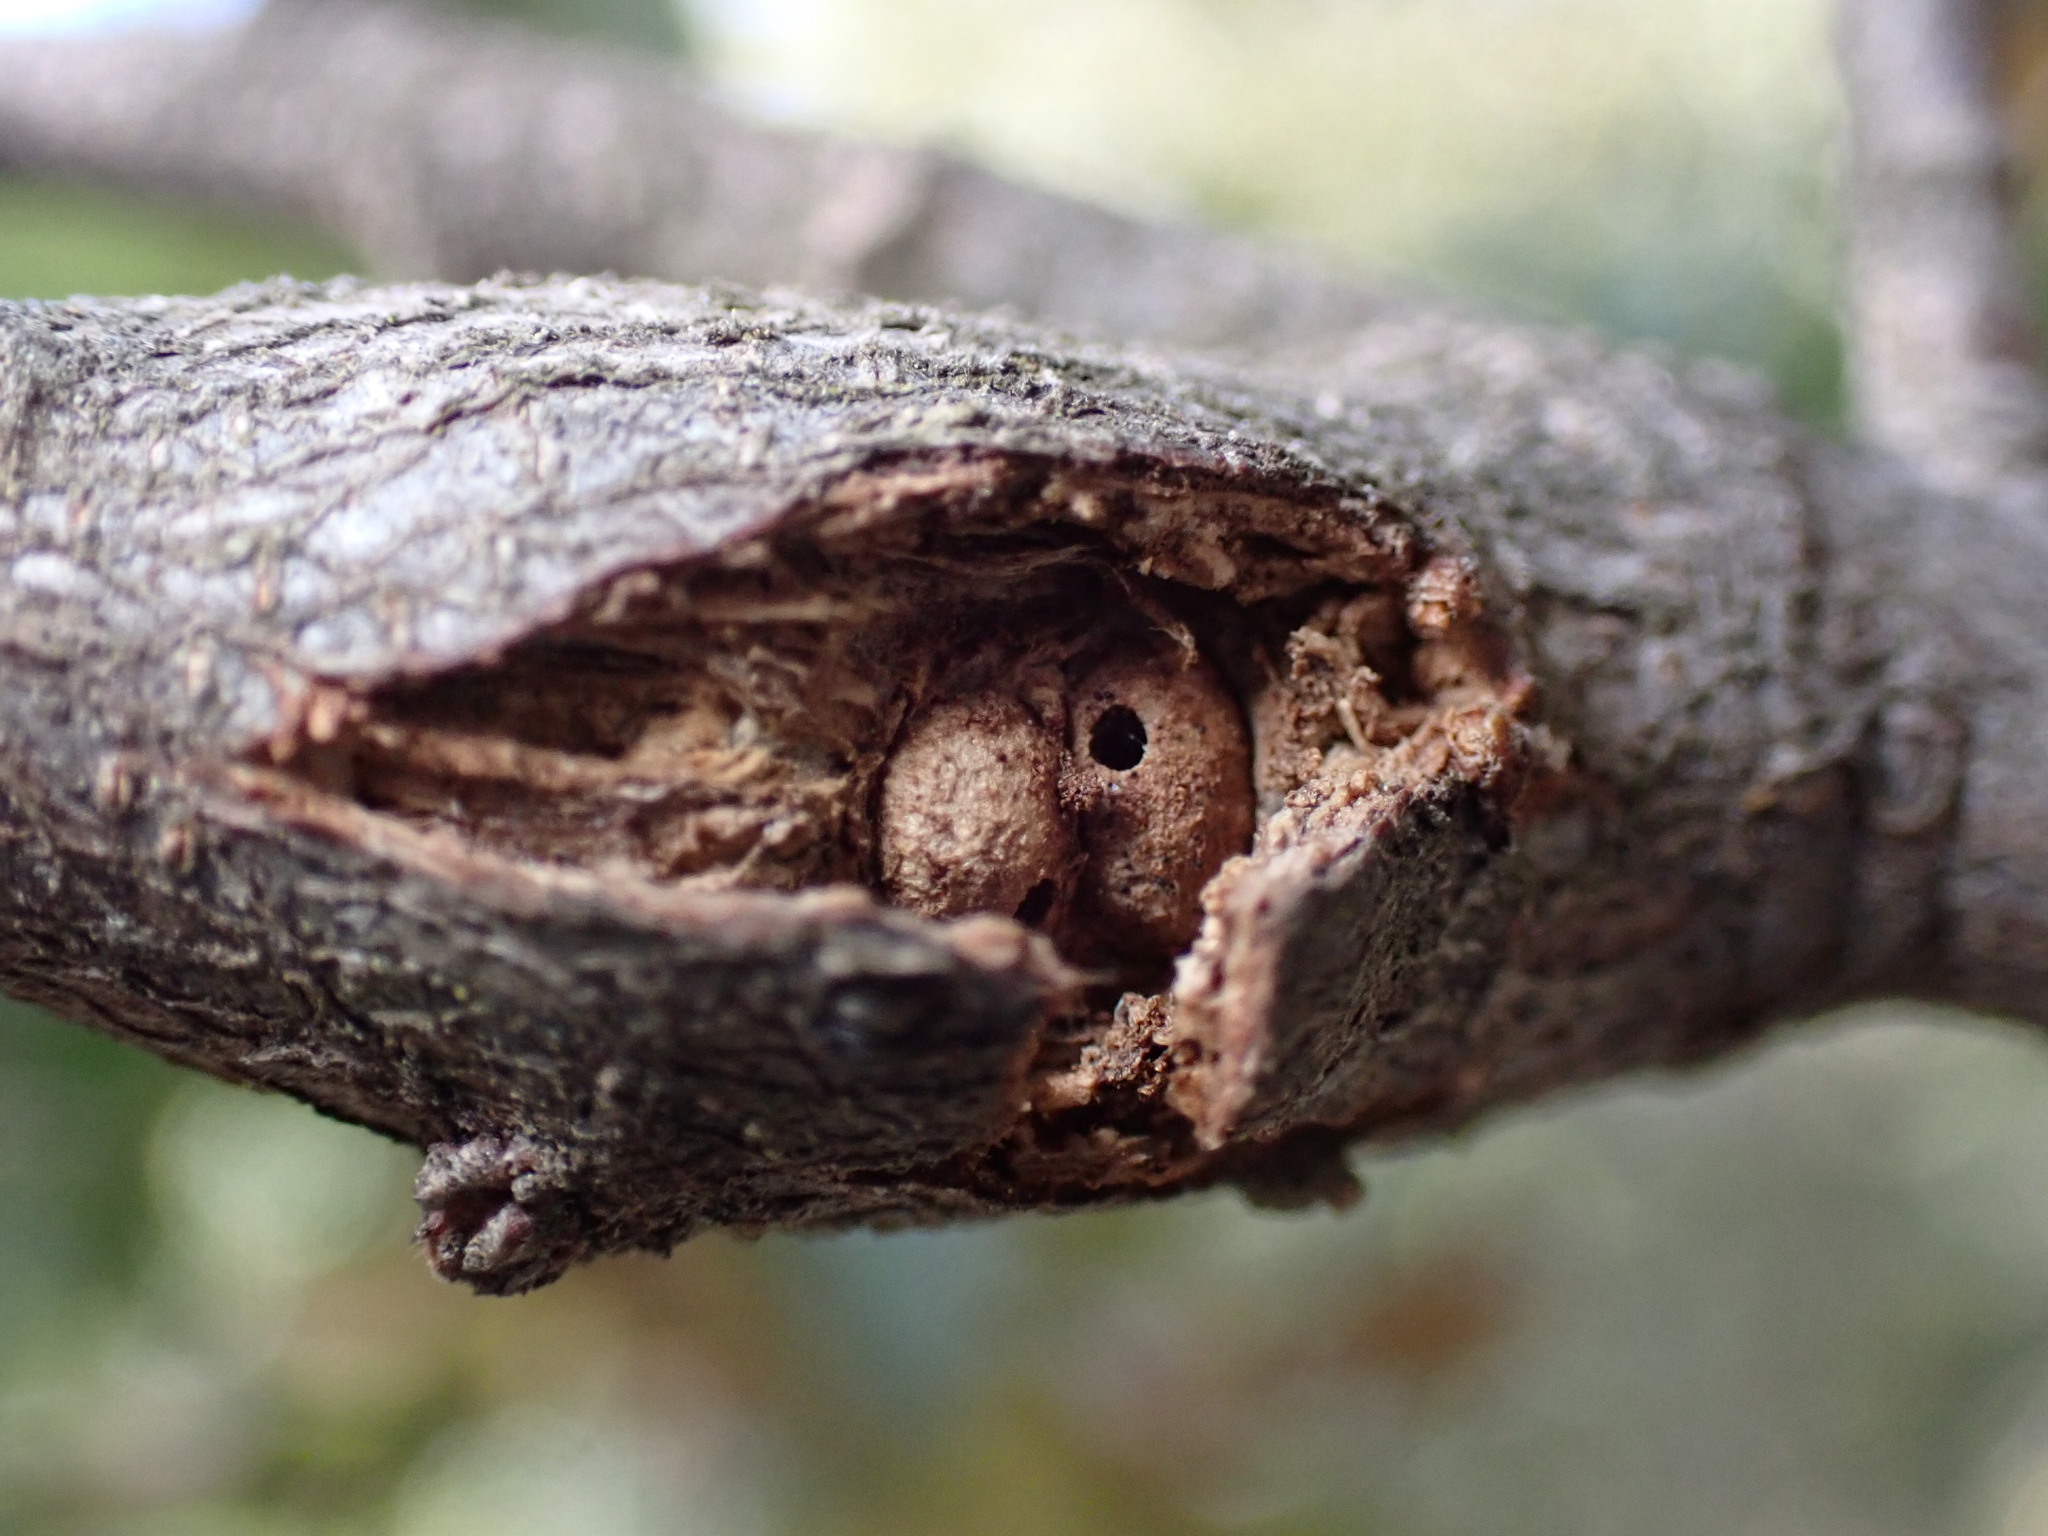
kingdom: Animalia
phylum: Arthropoda
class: Insecta
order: Hymenoptera
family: Cynipidae
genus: Dryocosmus
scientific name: Dryocosmus
